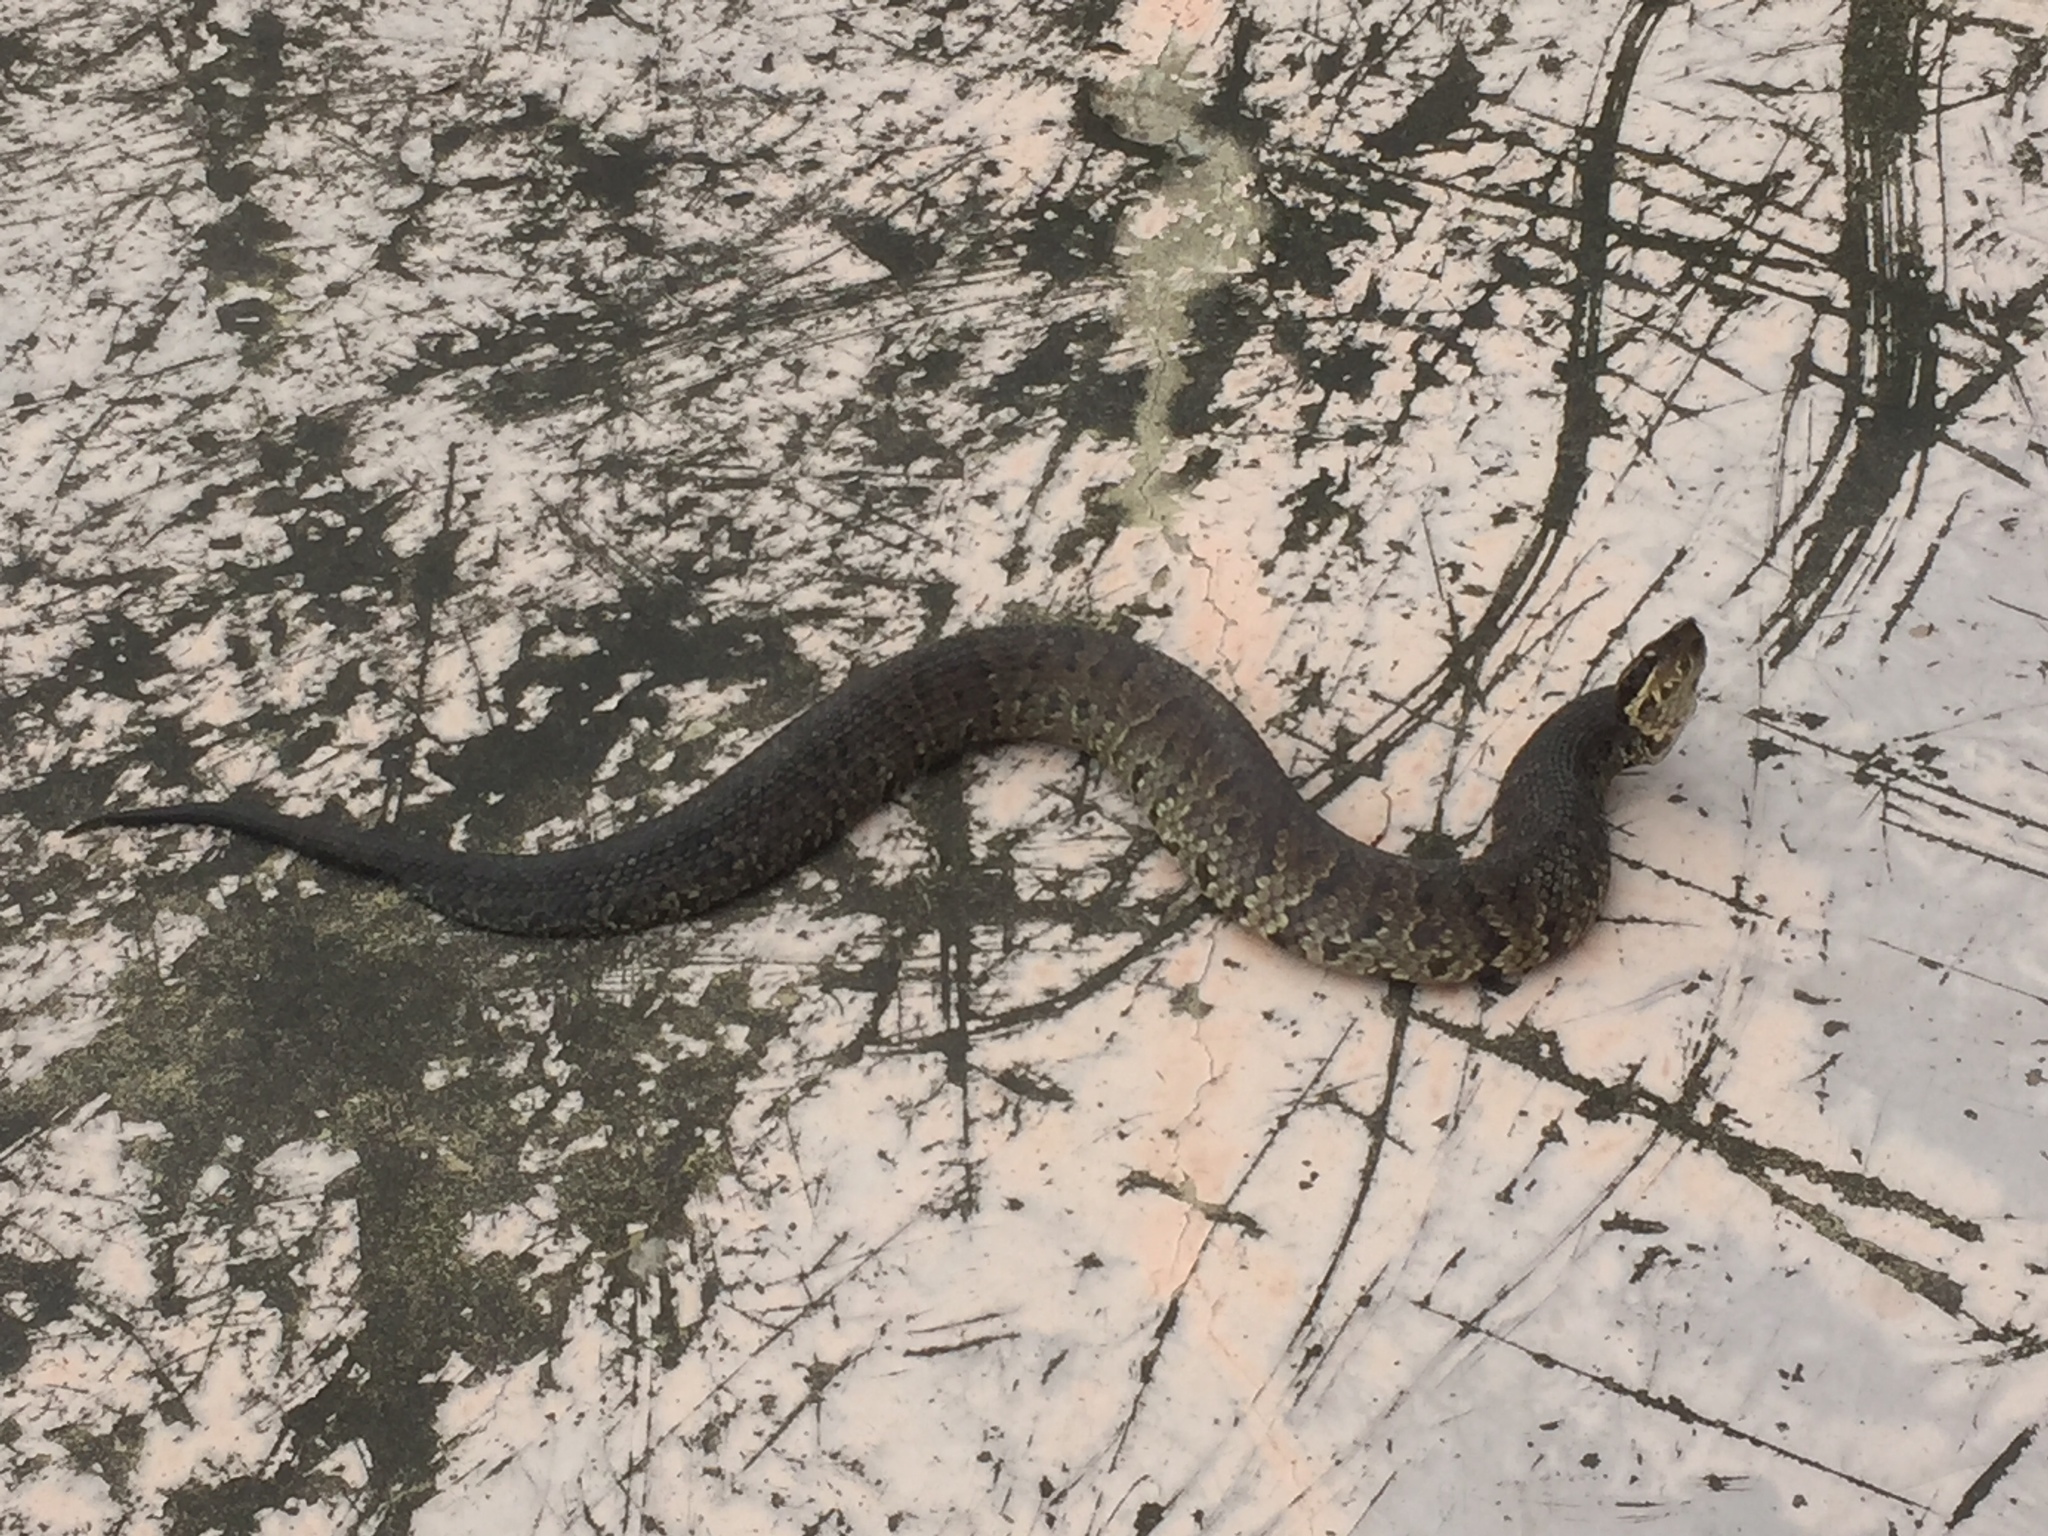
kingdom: Animalia
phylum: Chordata
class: Squamata
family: Viperidae
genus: Agkistrodon
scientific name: Agkistrodon piscivorus
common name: Cottonmouth
